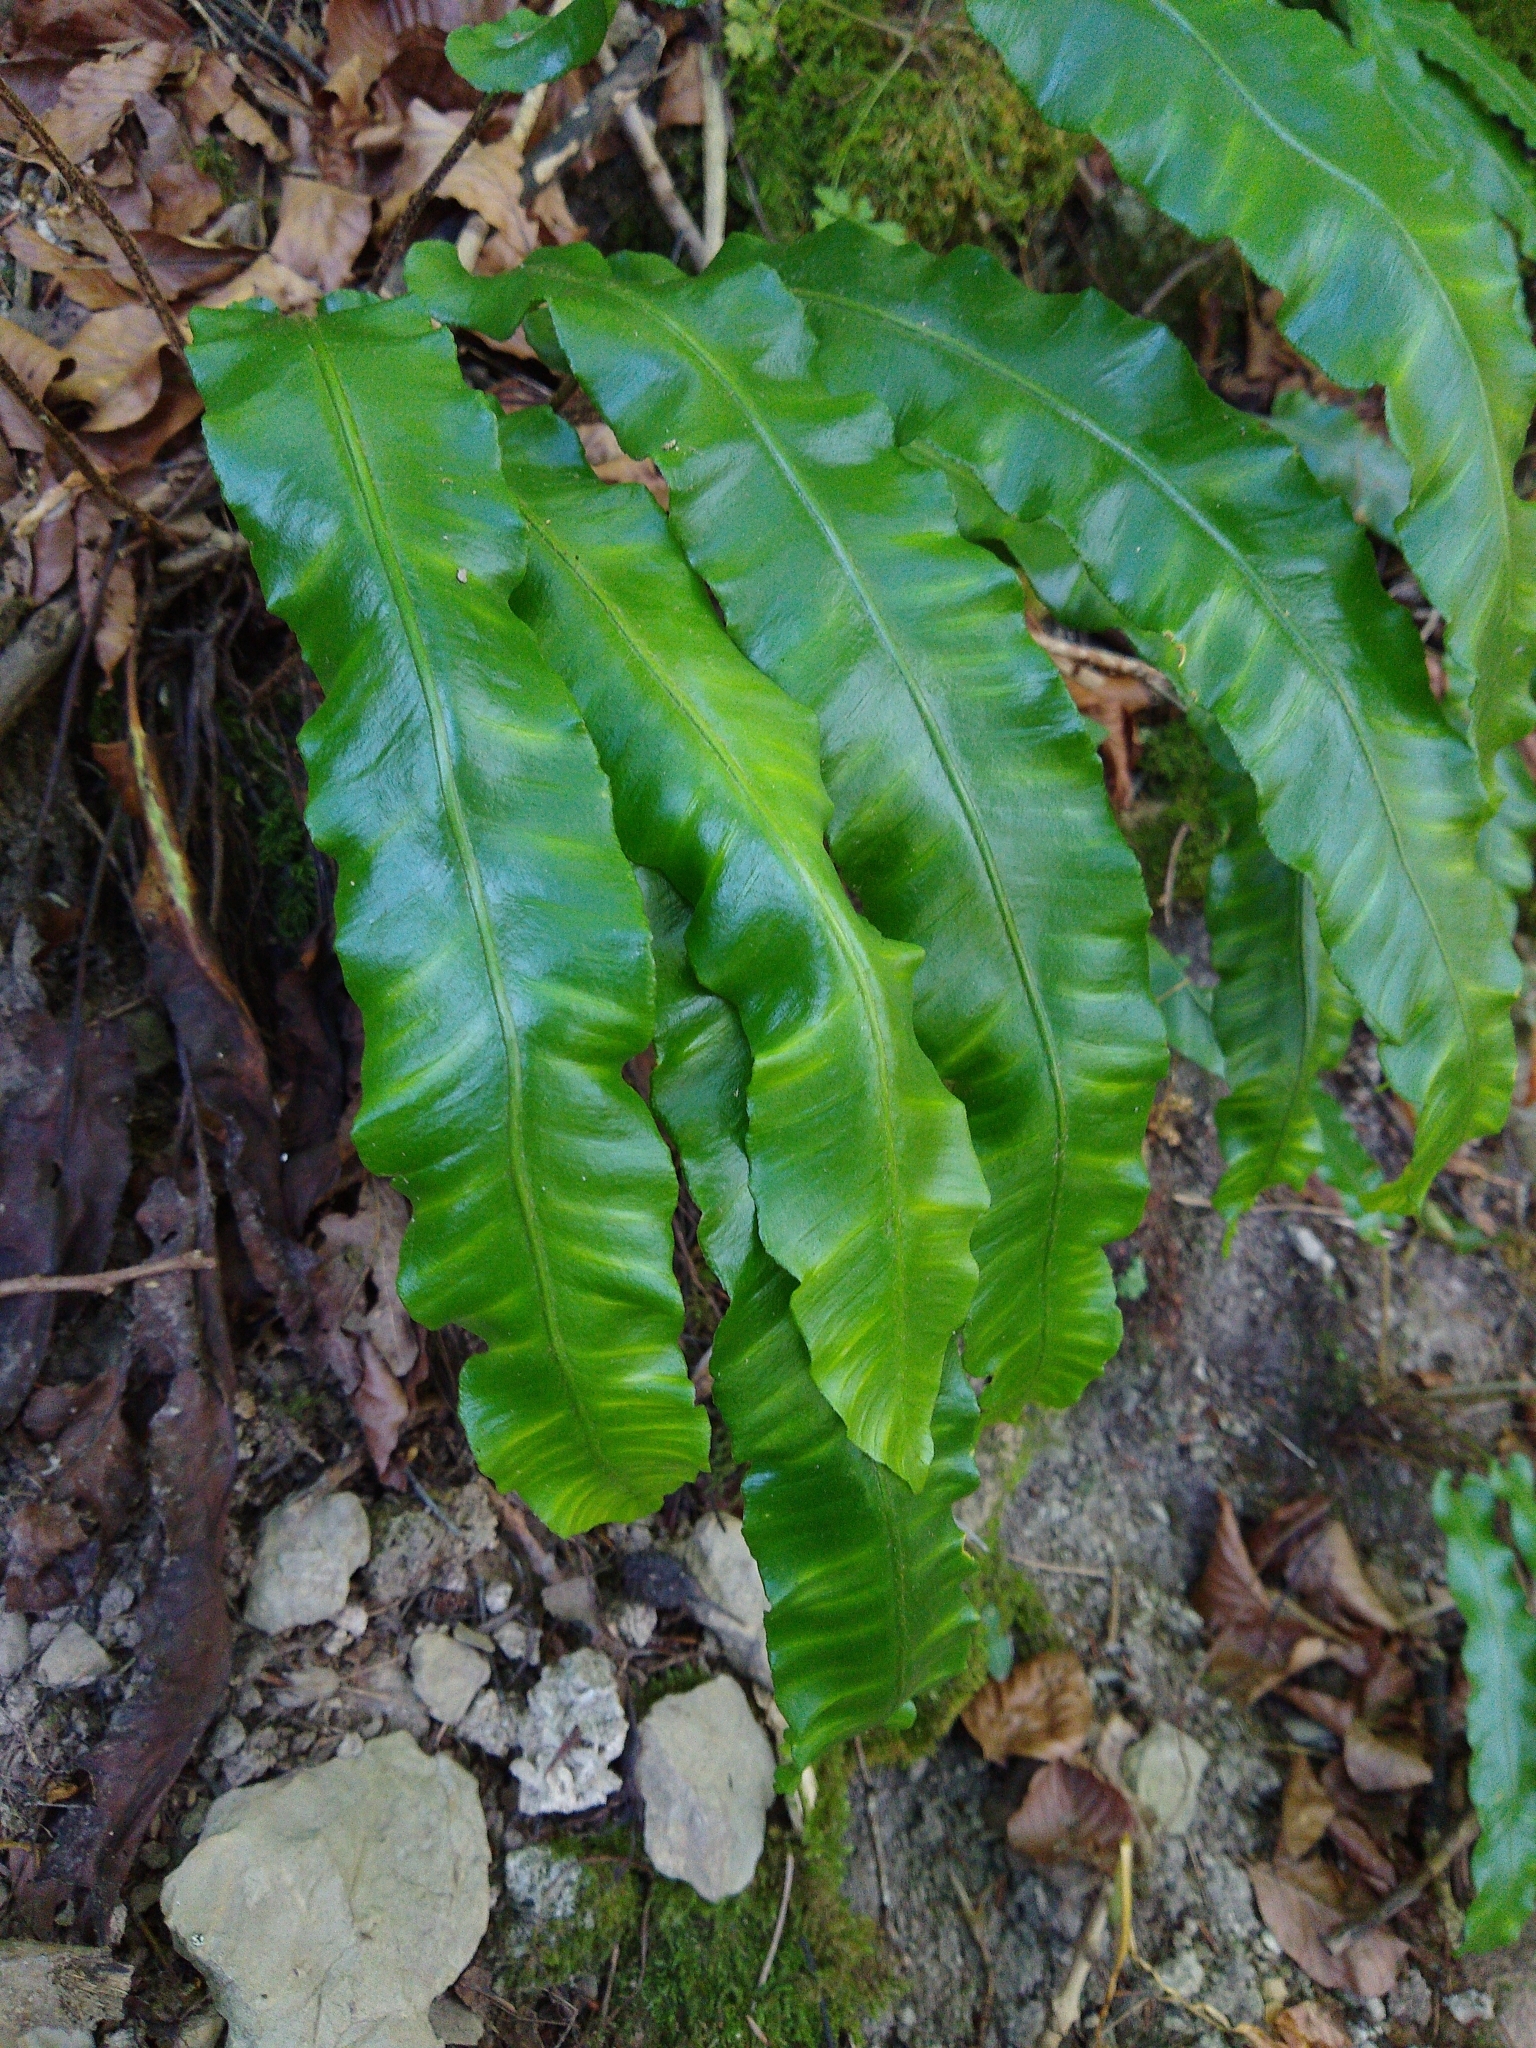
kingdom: Plantae
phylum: Tracheophyta
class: Polypodiopsida
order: Polypodiales
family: Aspleniaceae
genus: Asplenium
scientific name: Asplenium scolopendrium
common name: Hart's-tongue fern
